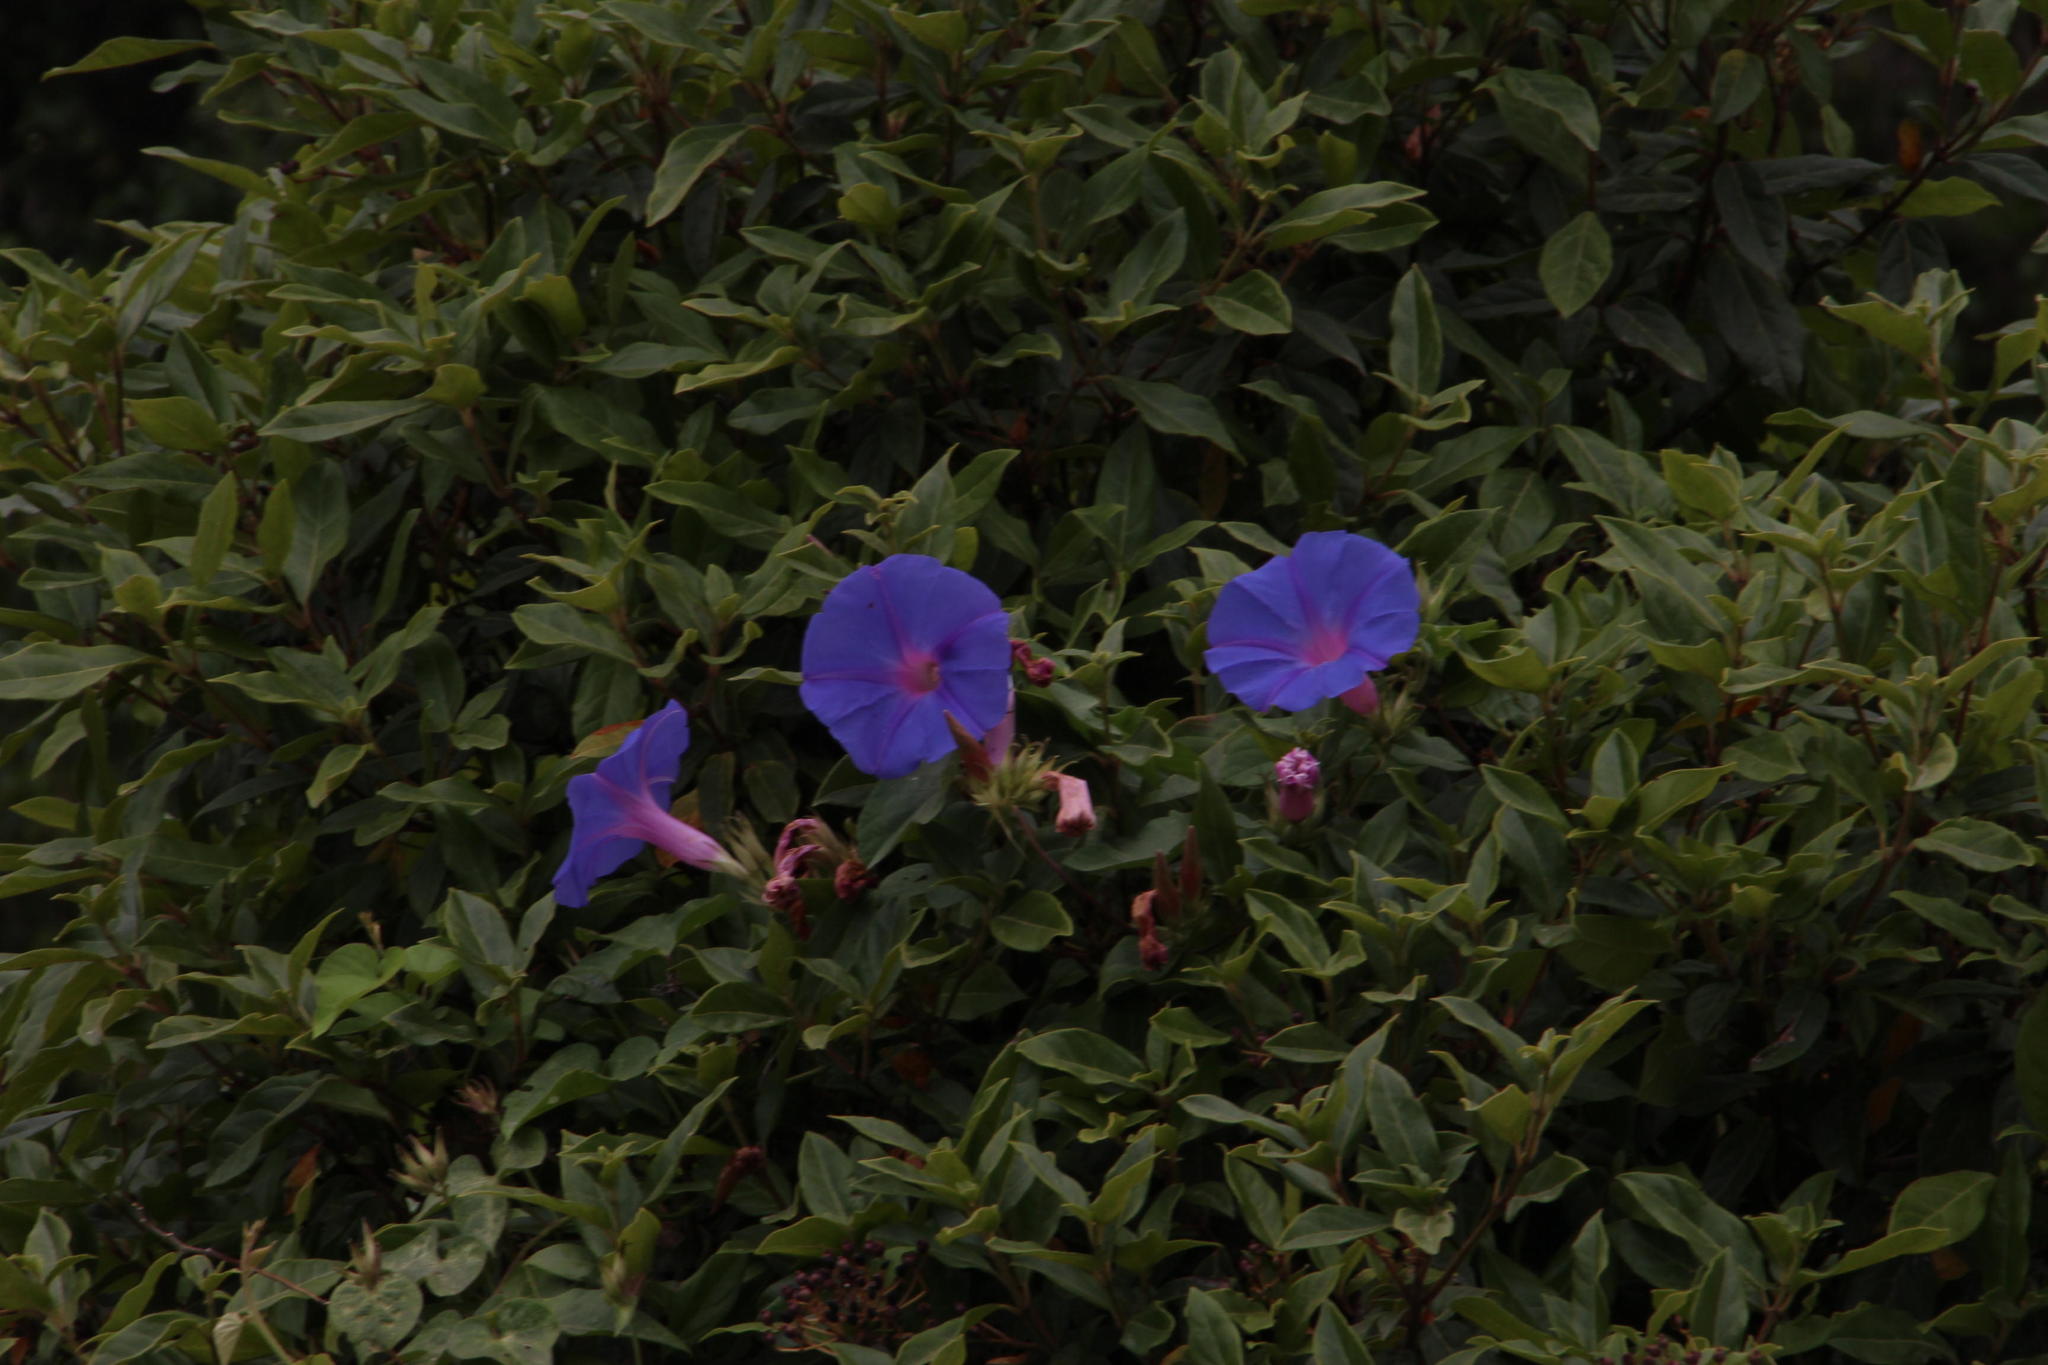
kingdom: Plantae
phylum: Tracheophyta
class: Magnoliopsida
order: Solanales
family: Convolvulaceae
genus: Ipomoea
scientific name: Ipomoea indica
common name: Blue dawnflower
